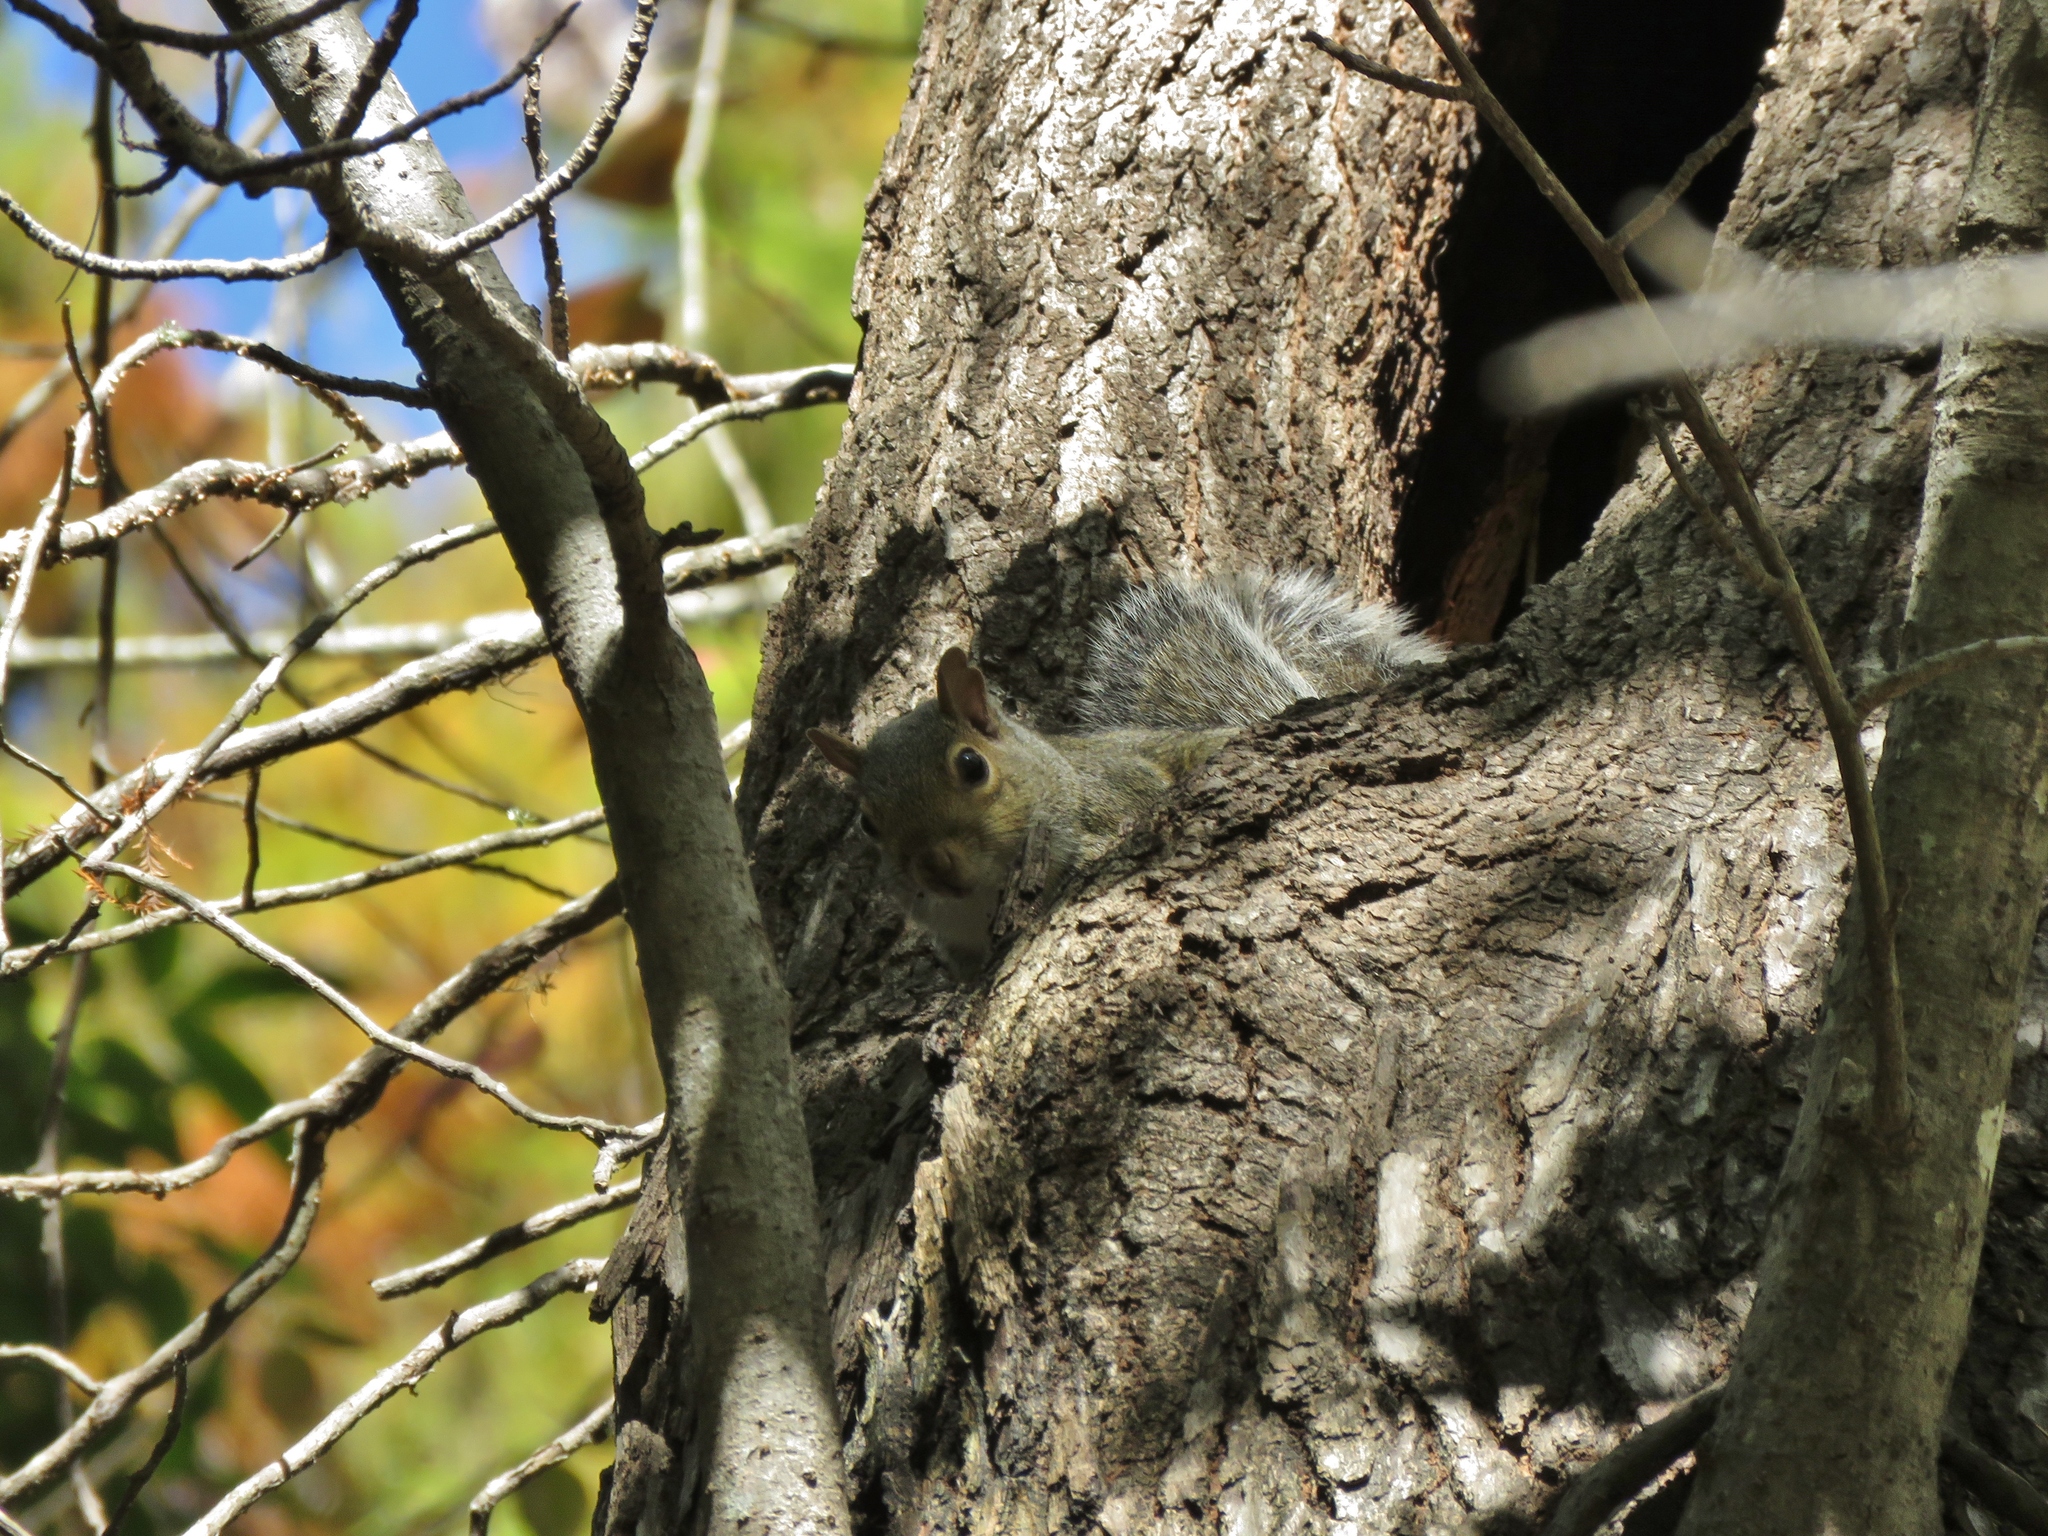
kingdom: Animalia
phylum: Chordata
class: Mammalia
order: Rodentia
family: Sciuridae
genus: Sciurus
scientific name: Sciurus carolinensis
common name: Eastern gray squirrel
